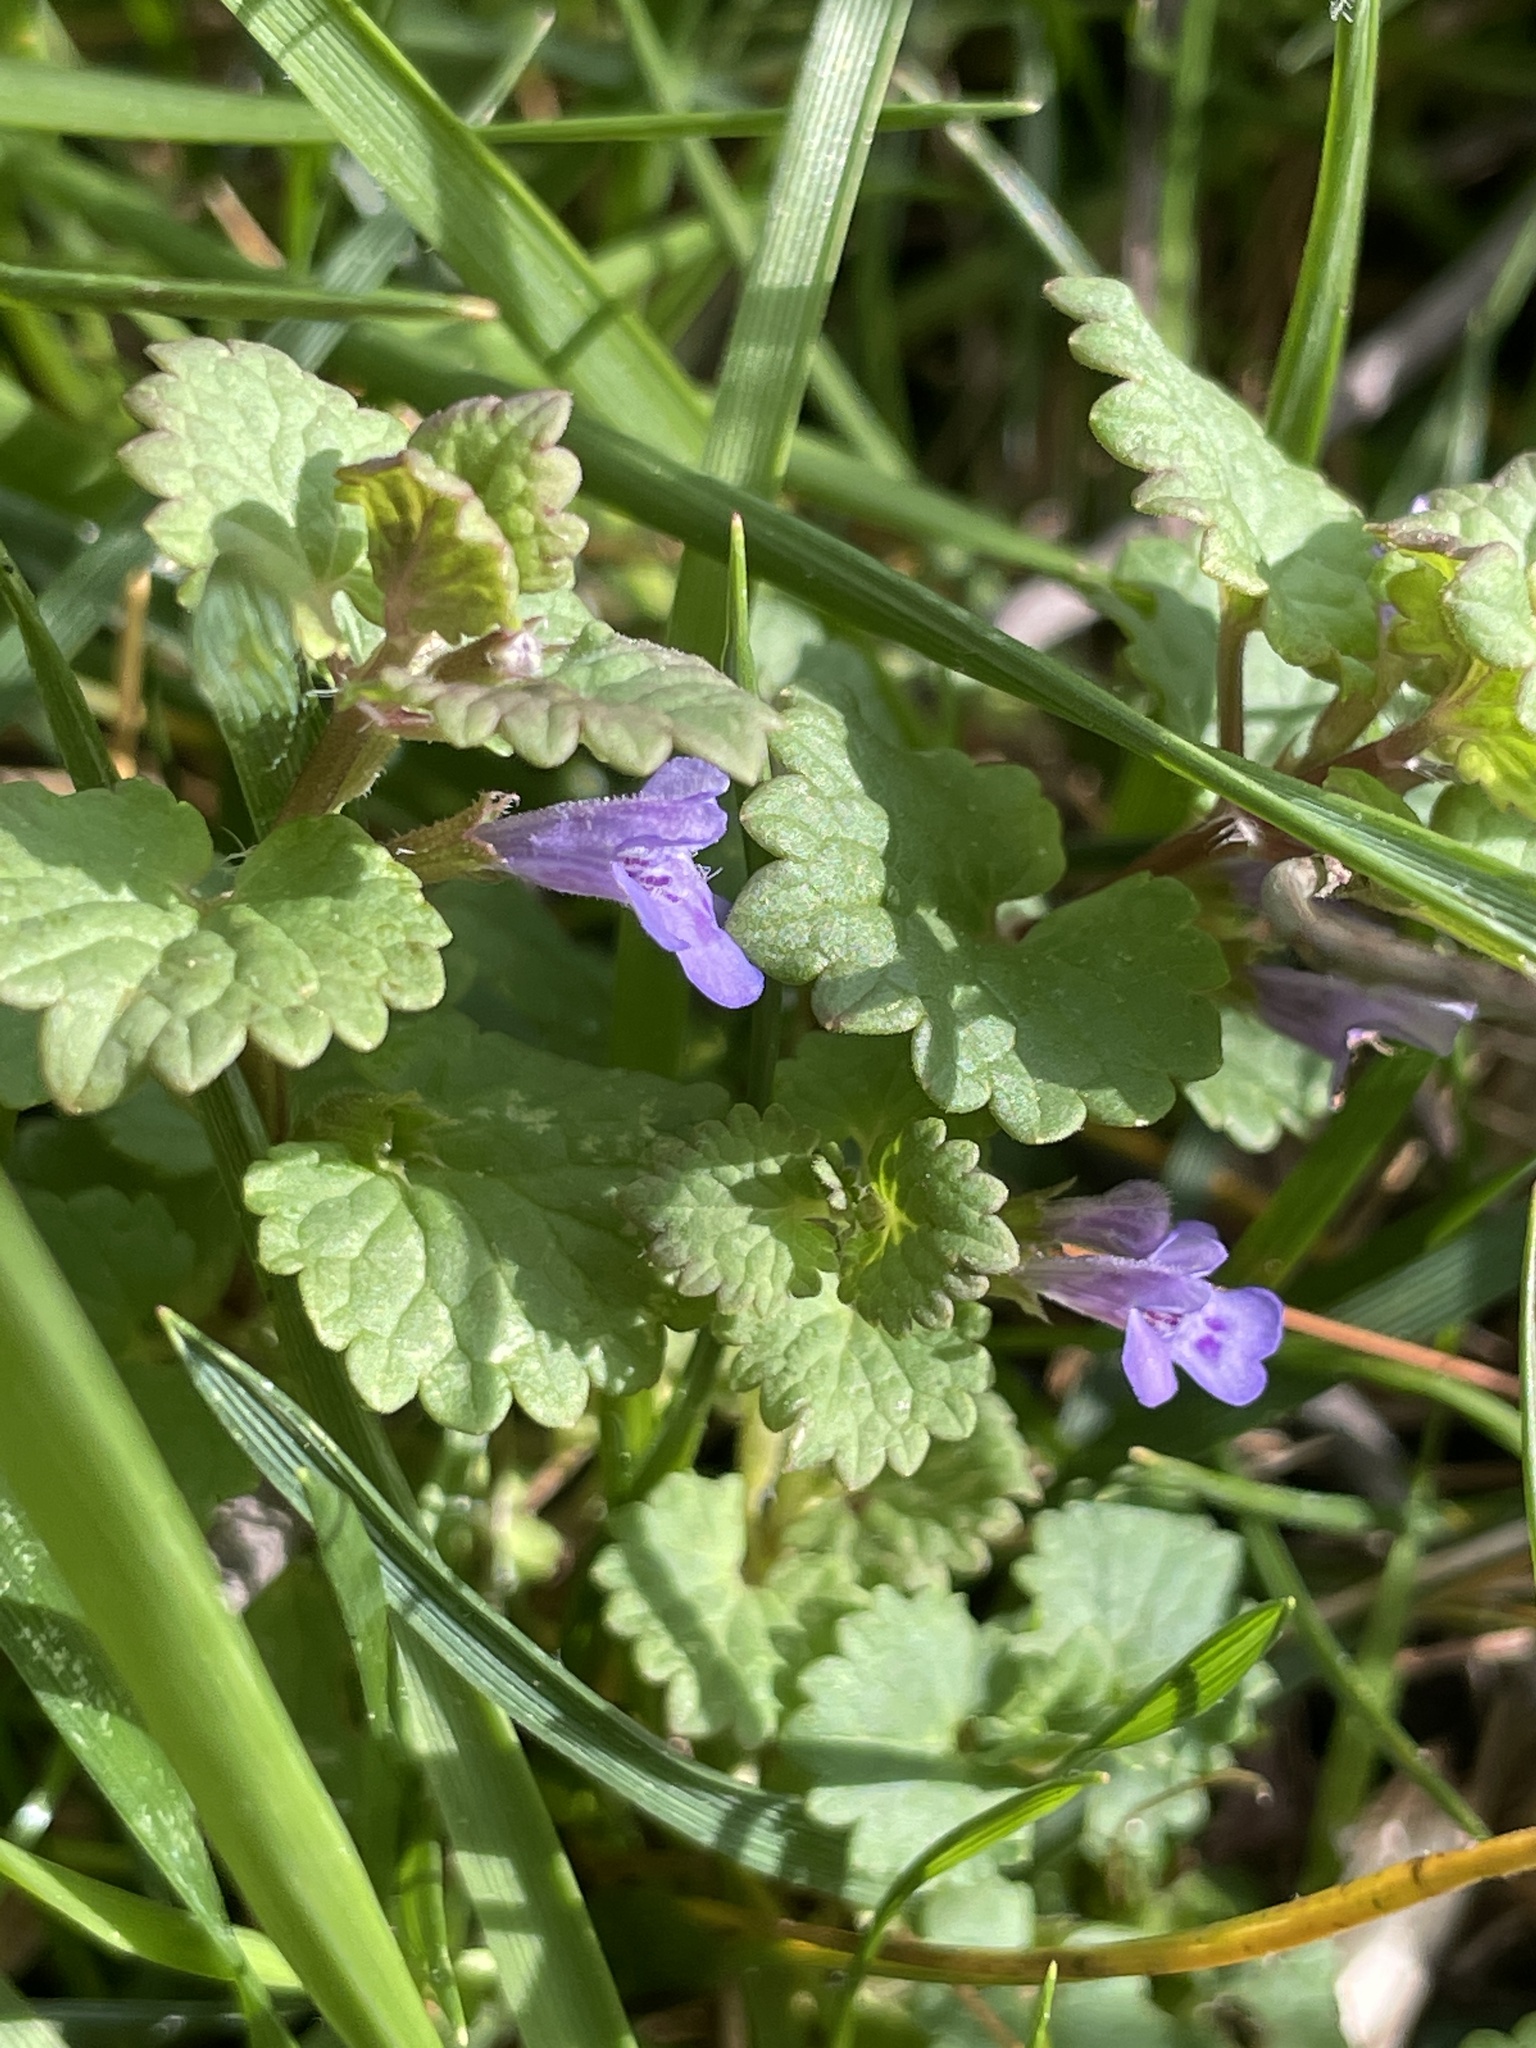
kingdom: Plantae
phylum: Tracheophyta
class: Magnoliopsida
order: Lamiales
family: Lamiaceae
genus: Glechoma
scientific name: Glechoma hederacea
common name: Ground ivy
